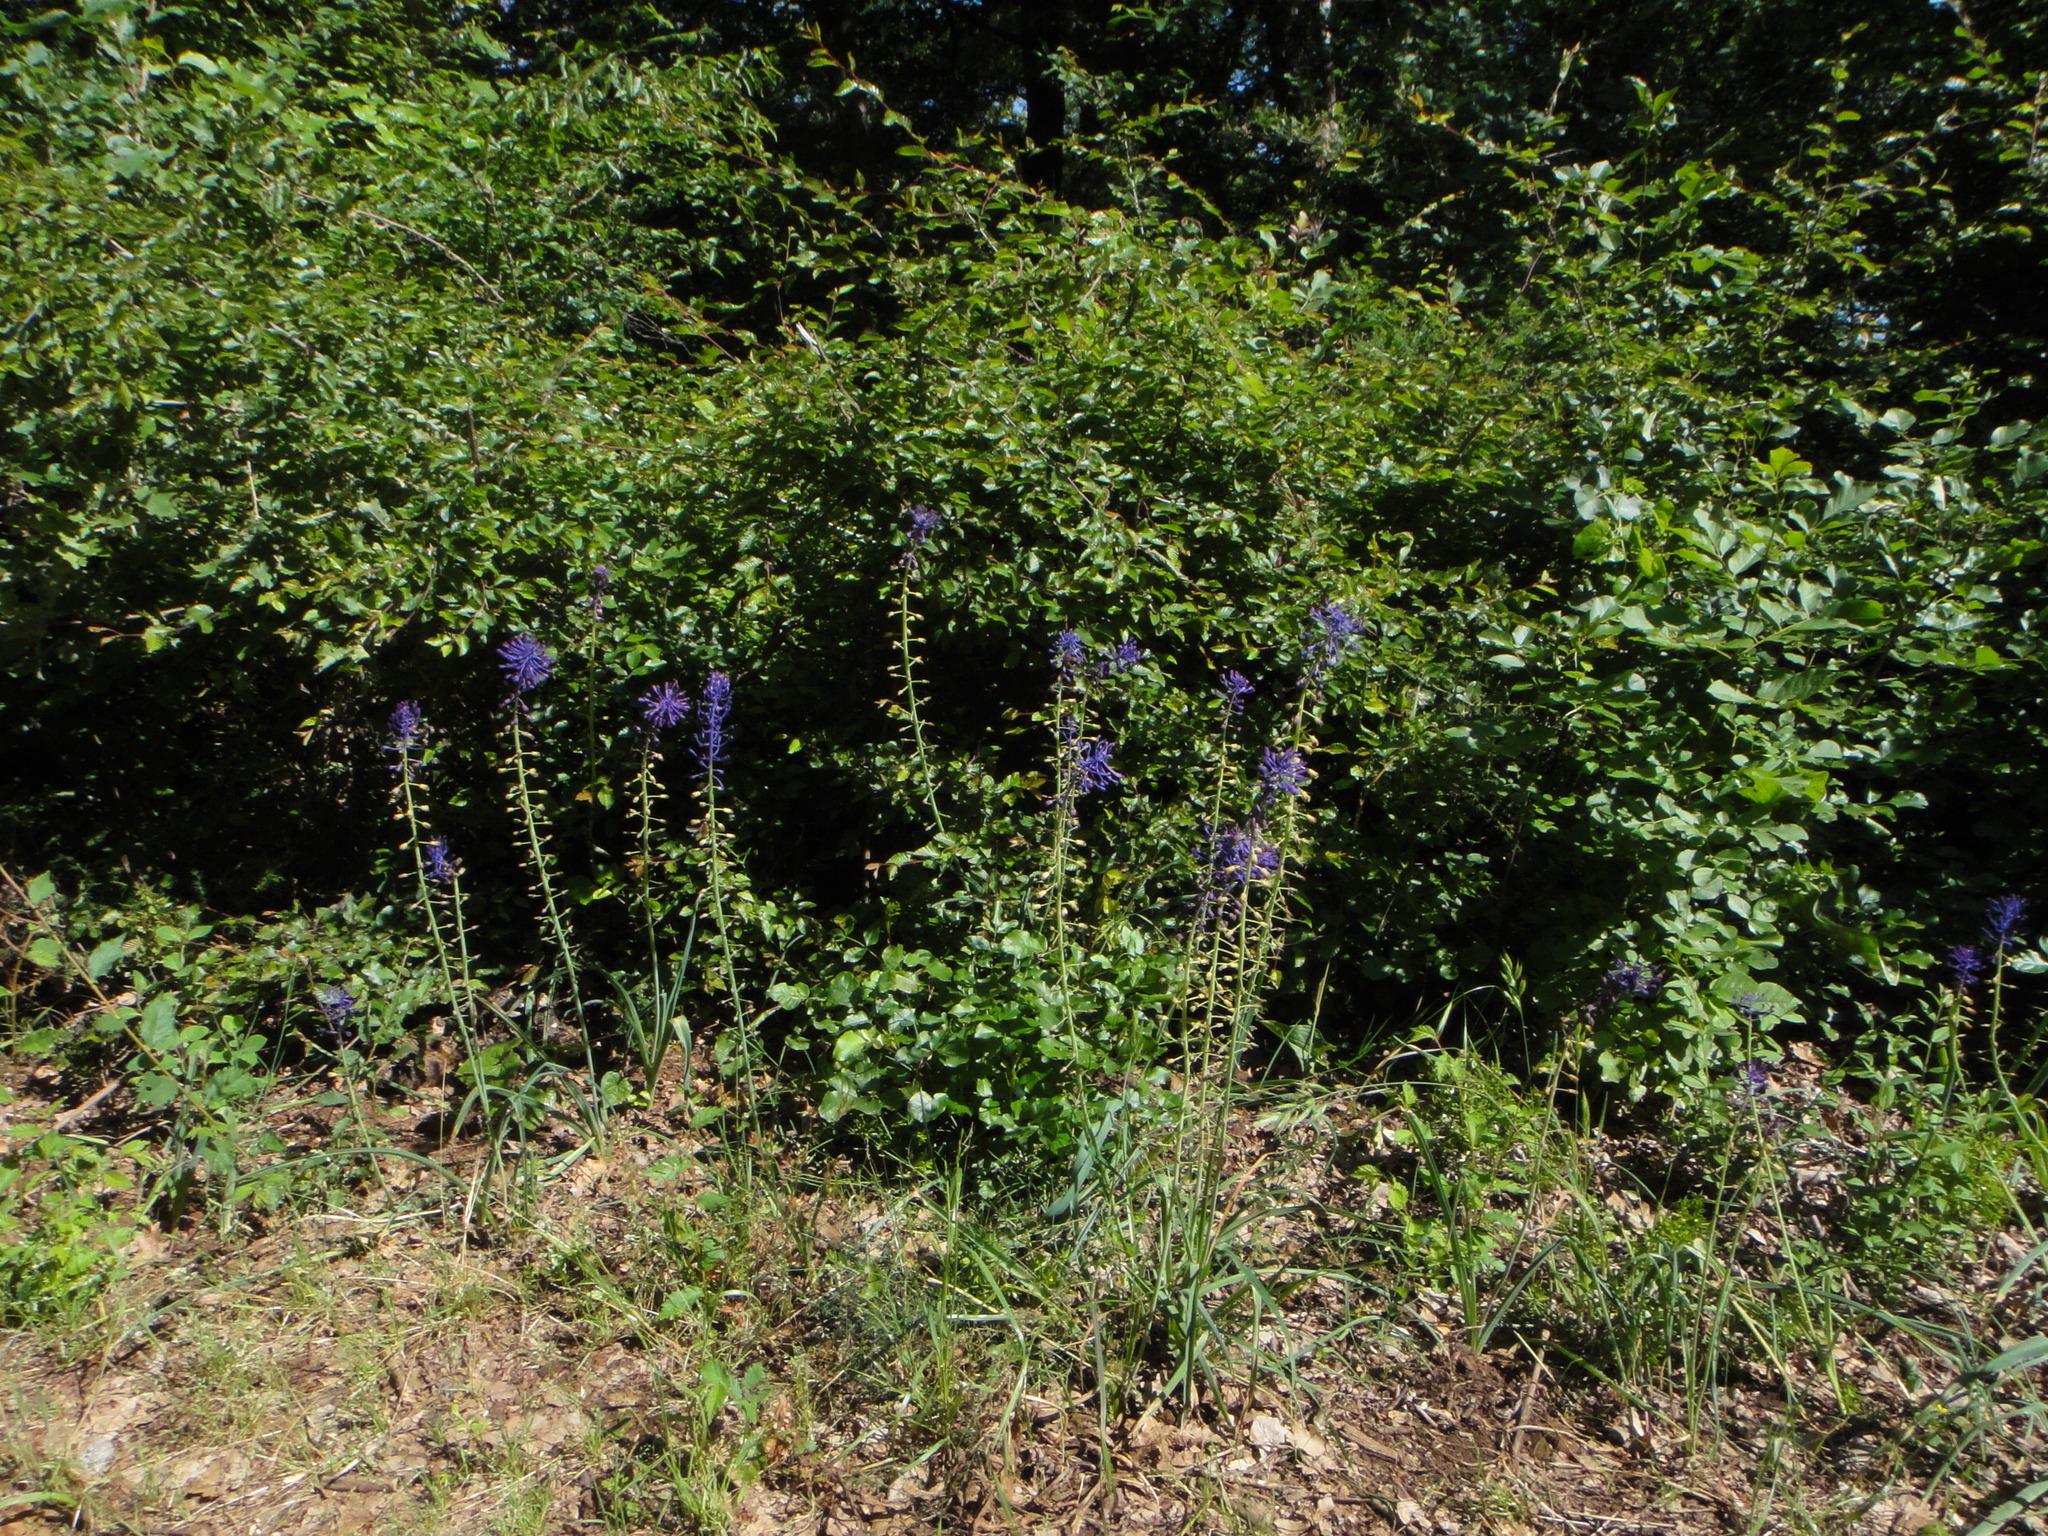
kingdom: Plantae
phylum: Tracheophyta
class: Liliopsida
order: Asparagales
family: Asparagaceae
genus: Muscari
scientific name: Muscari comosum
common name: Tassel hyacinth
